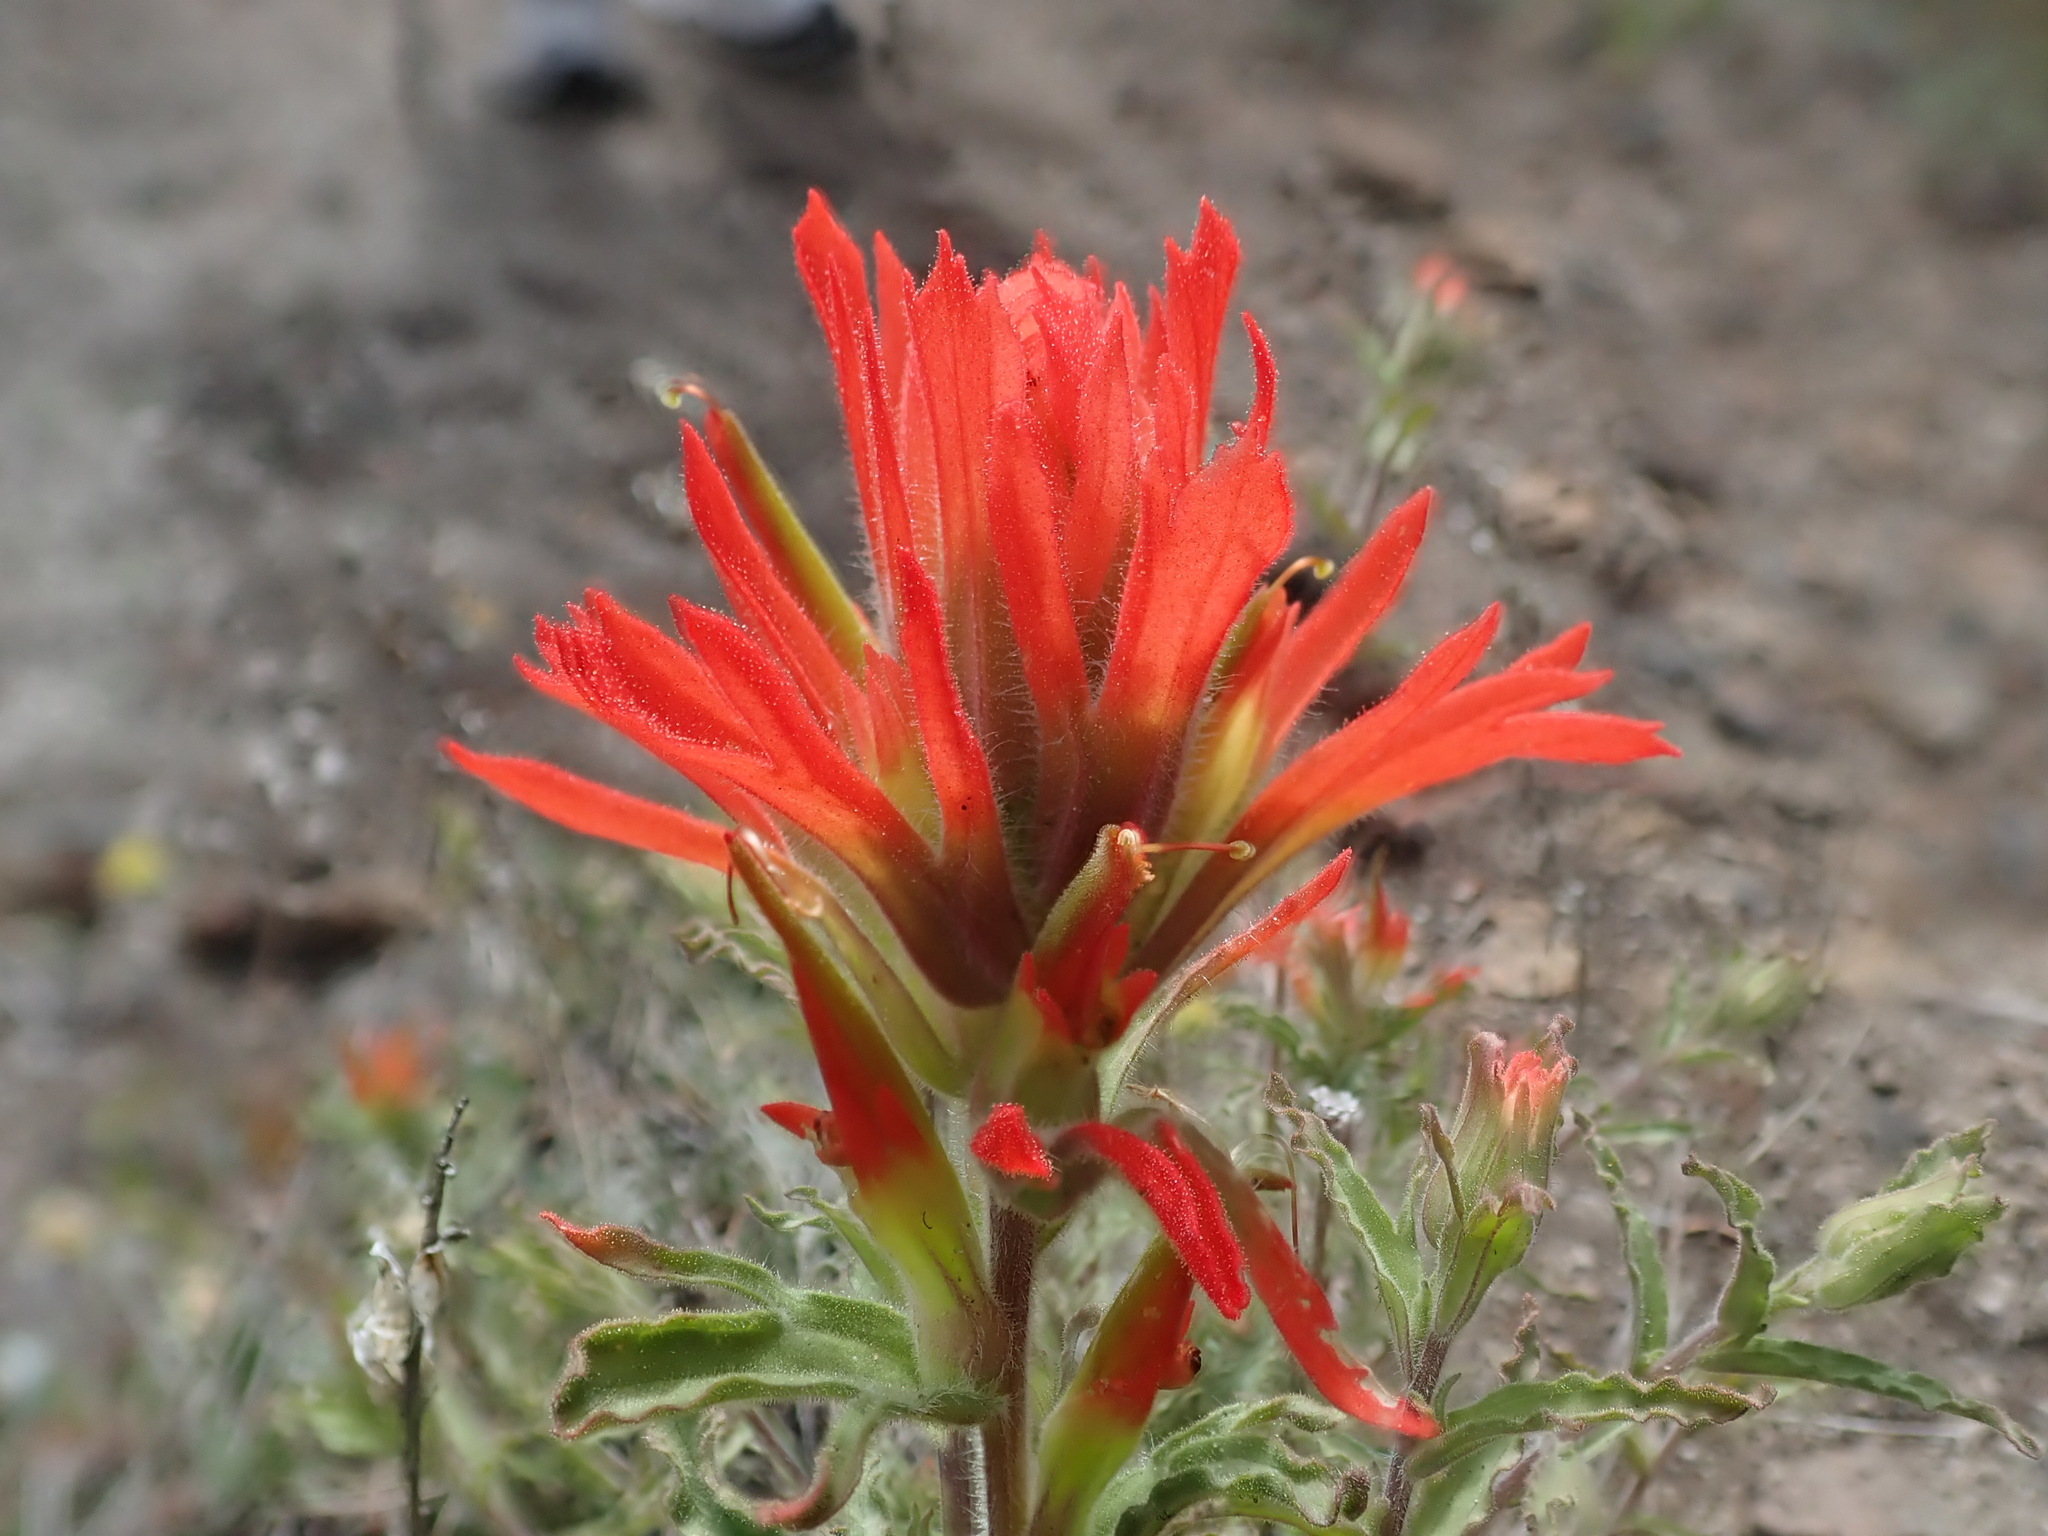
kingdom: Plantae
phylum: Tracheophyta
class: Magnoliopsida
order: Lamiales
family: Orobanchaceae
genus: Castilleja
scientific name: Castilleja applegatei
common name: Wavy-leaf paintbrush
